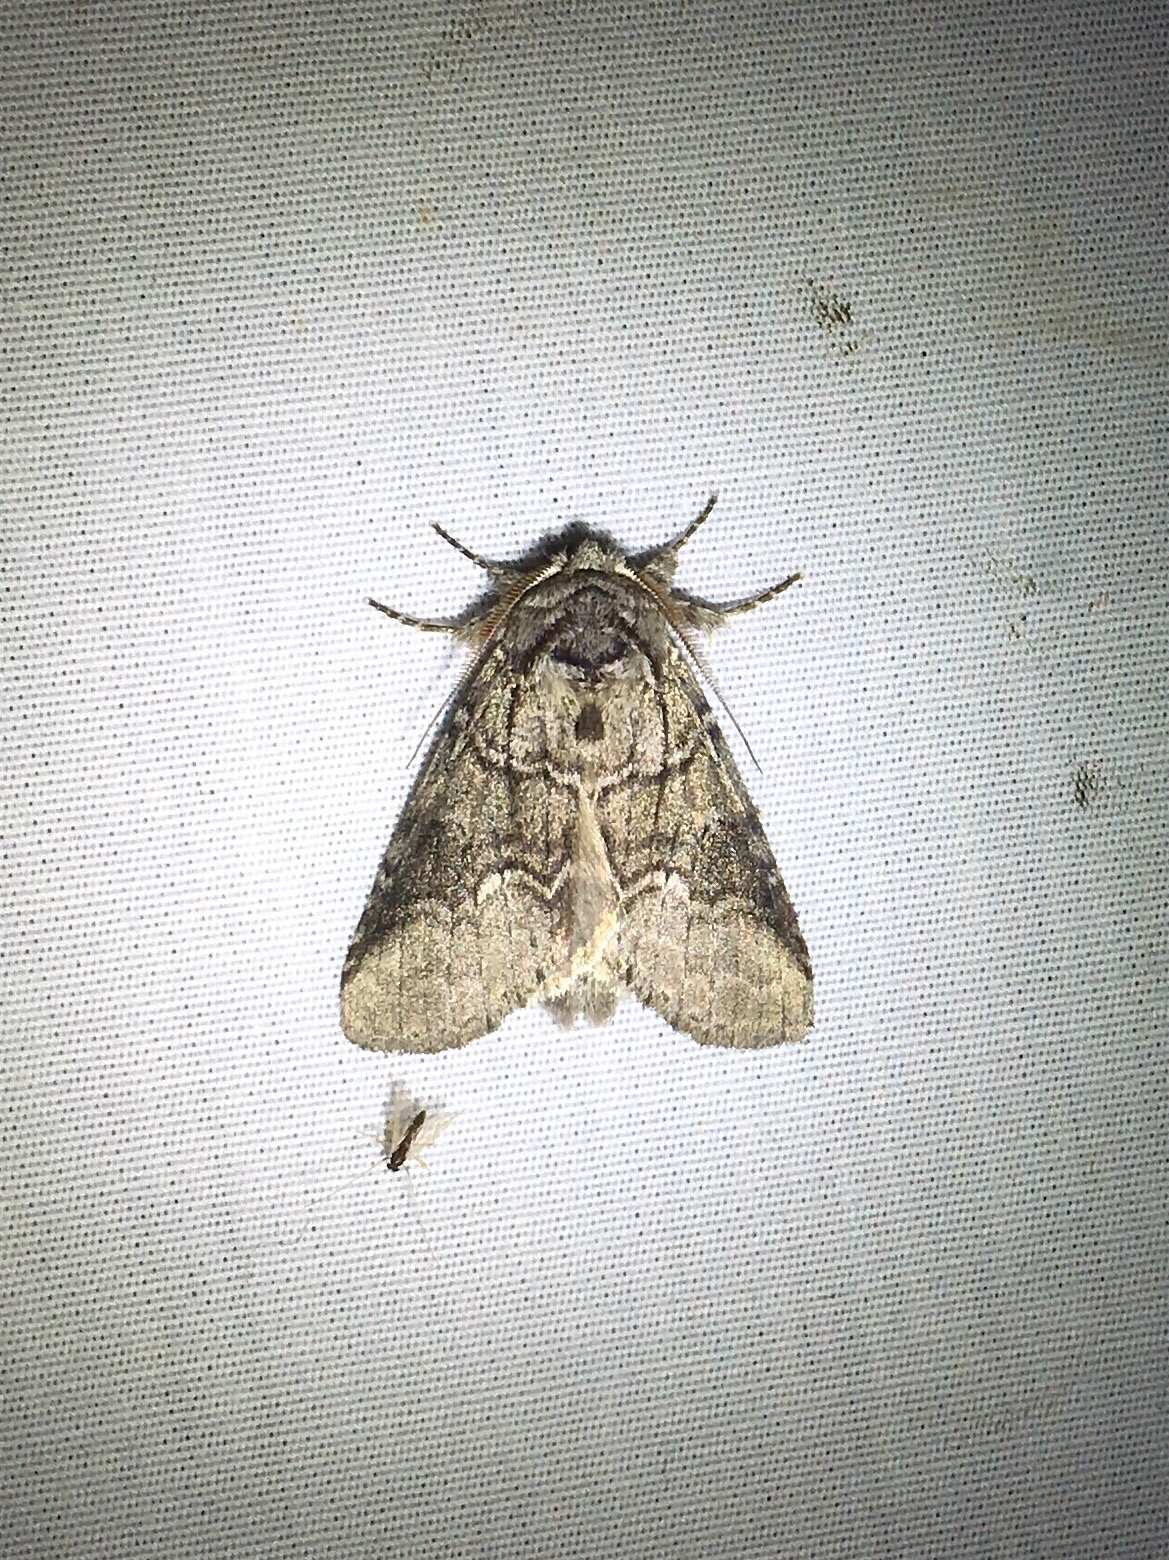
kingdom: Animalia
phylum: Arthropoda
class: Insecta
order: Lepidoptera
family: Notodontidae
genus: Lochmaeus
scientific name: Lochmaeus bilineata
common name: Double-lined prominent
